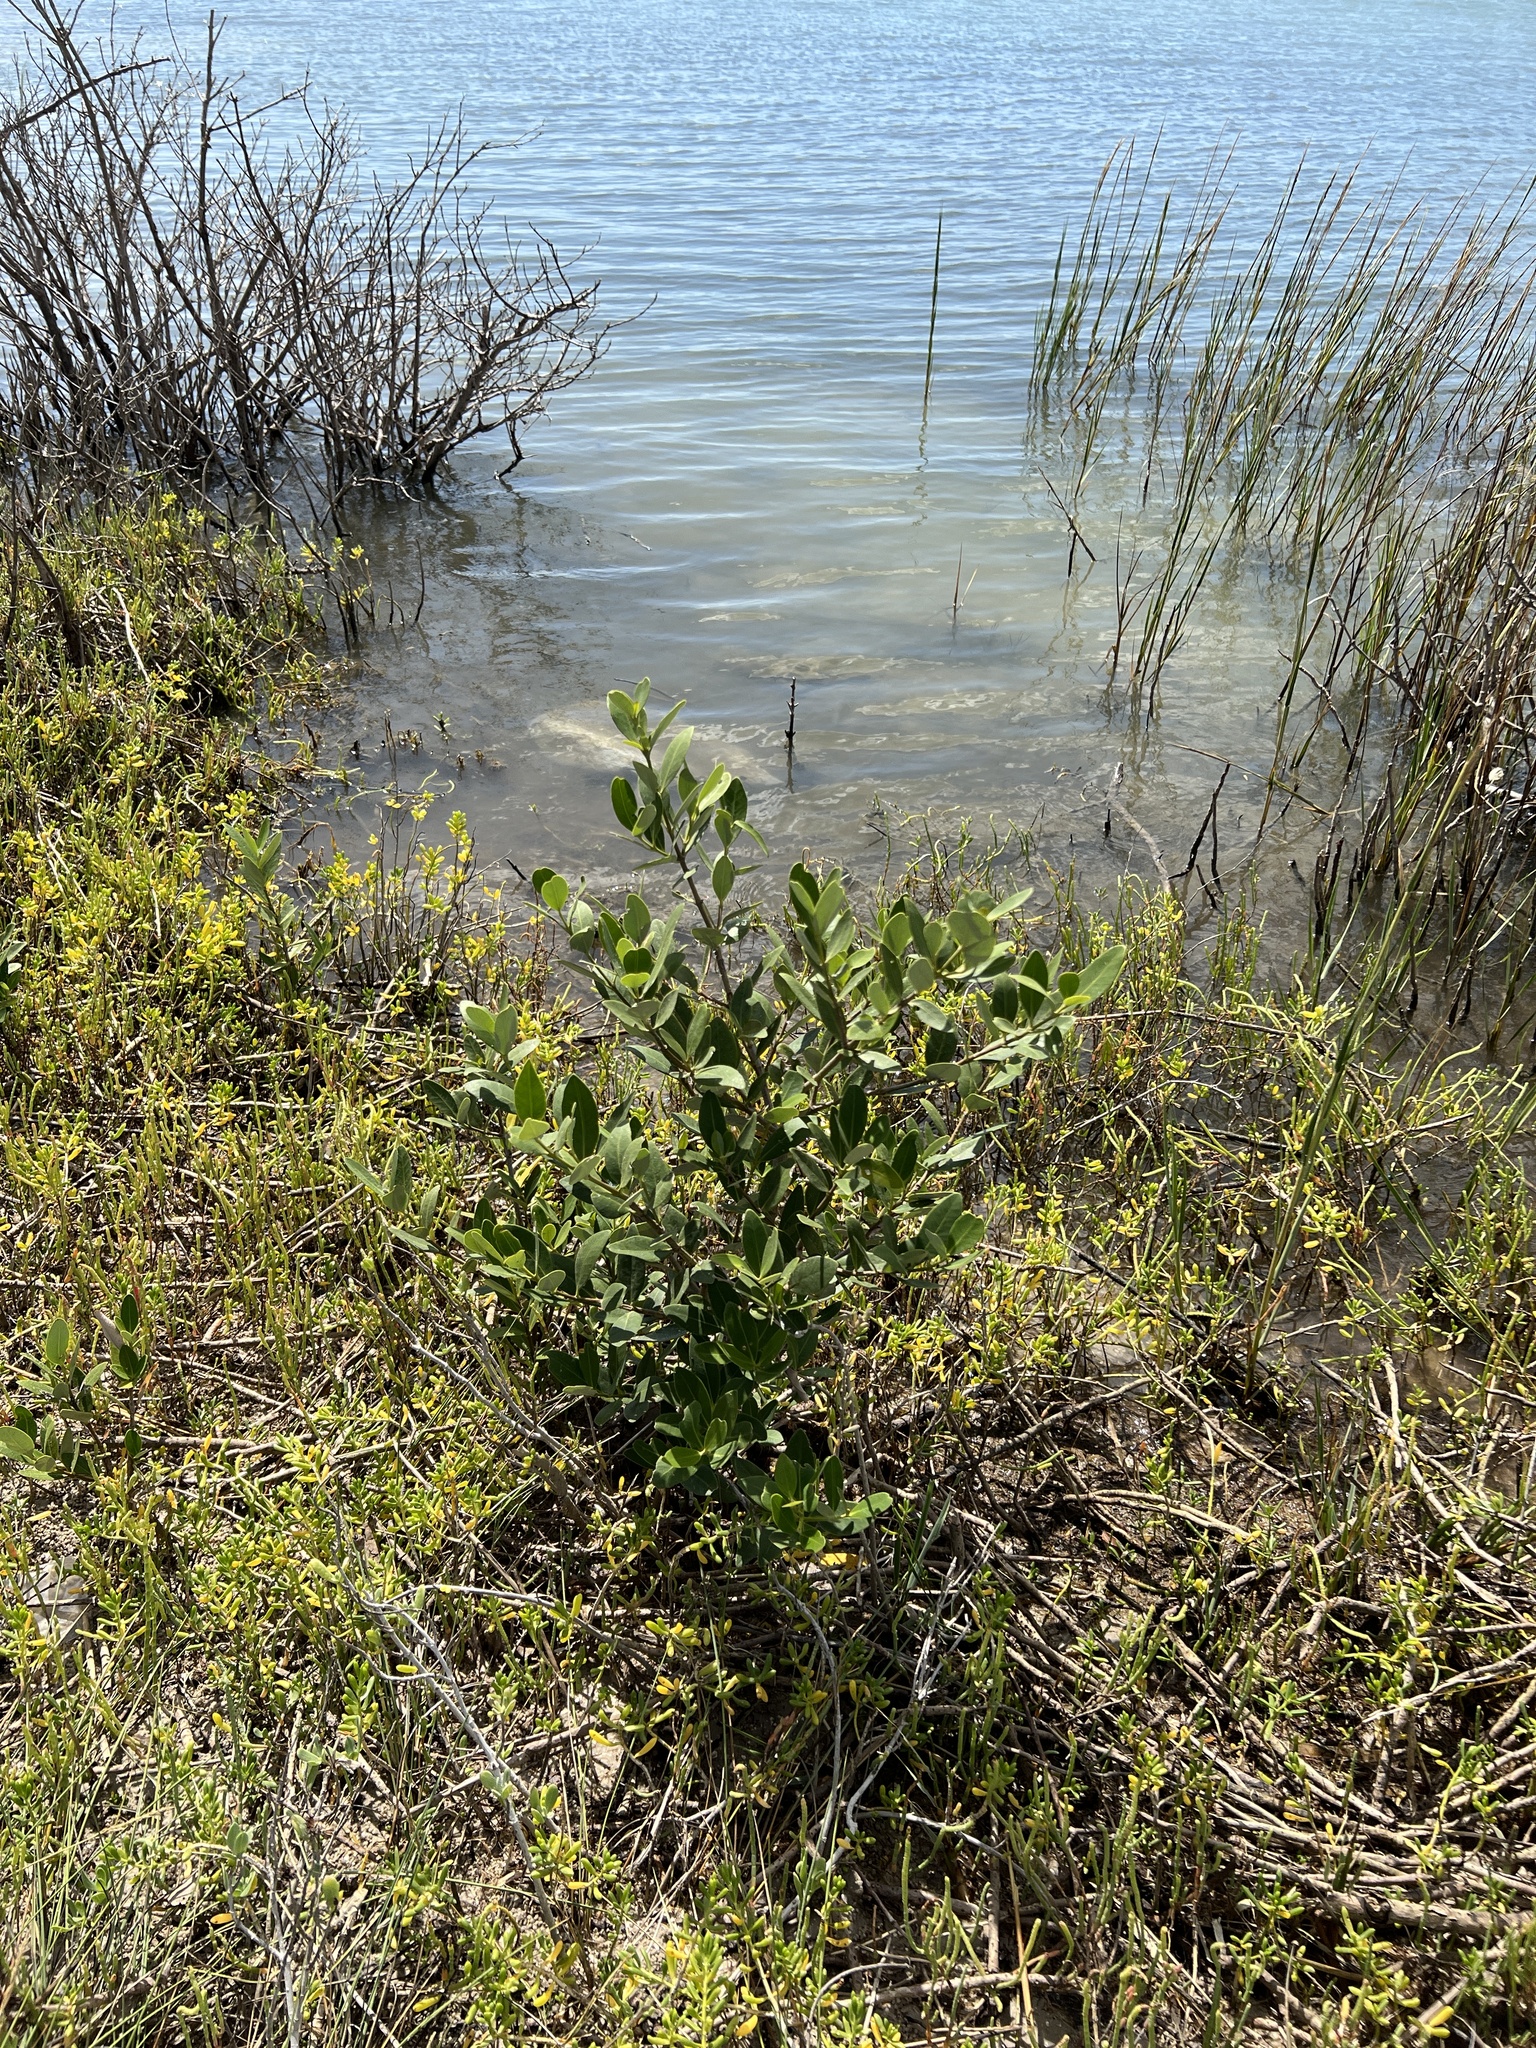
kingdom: Plantae
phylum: Tracheophyta
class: Magnoliopsida
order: Lamiales
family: Acanthaceae
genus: Avicennia
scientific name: Avicennia germinans
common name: Black mangrove
